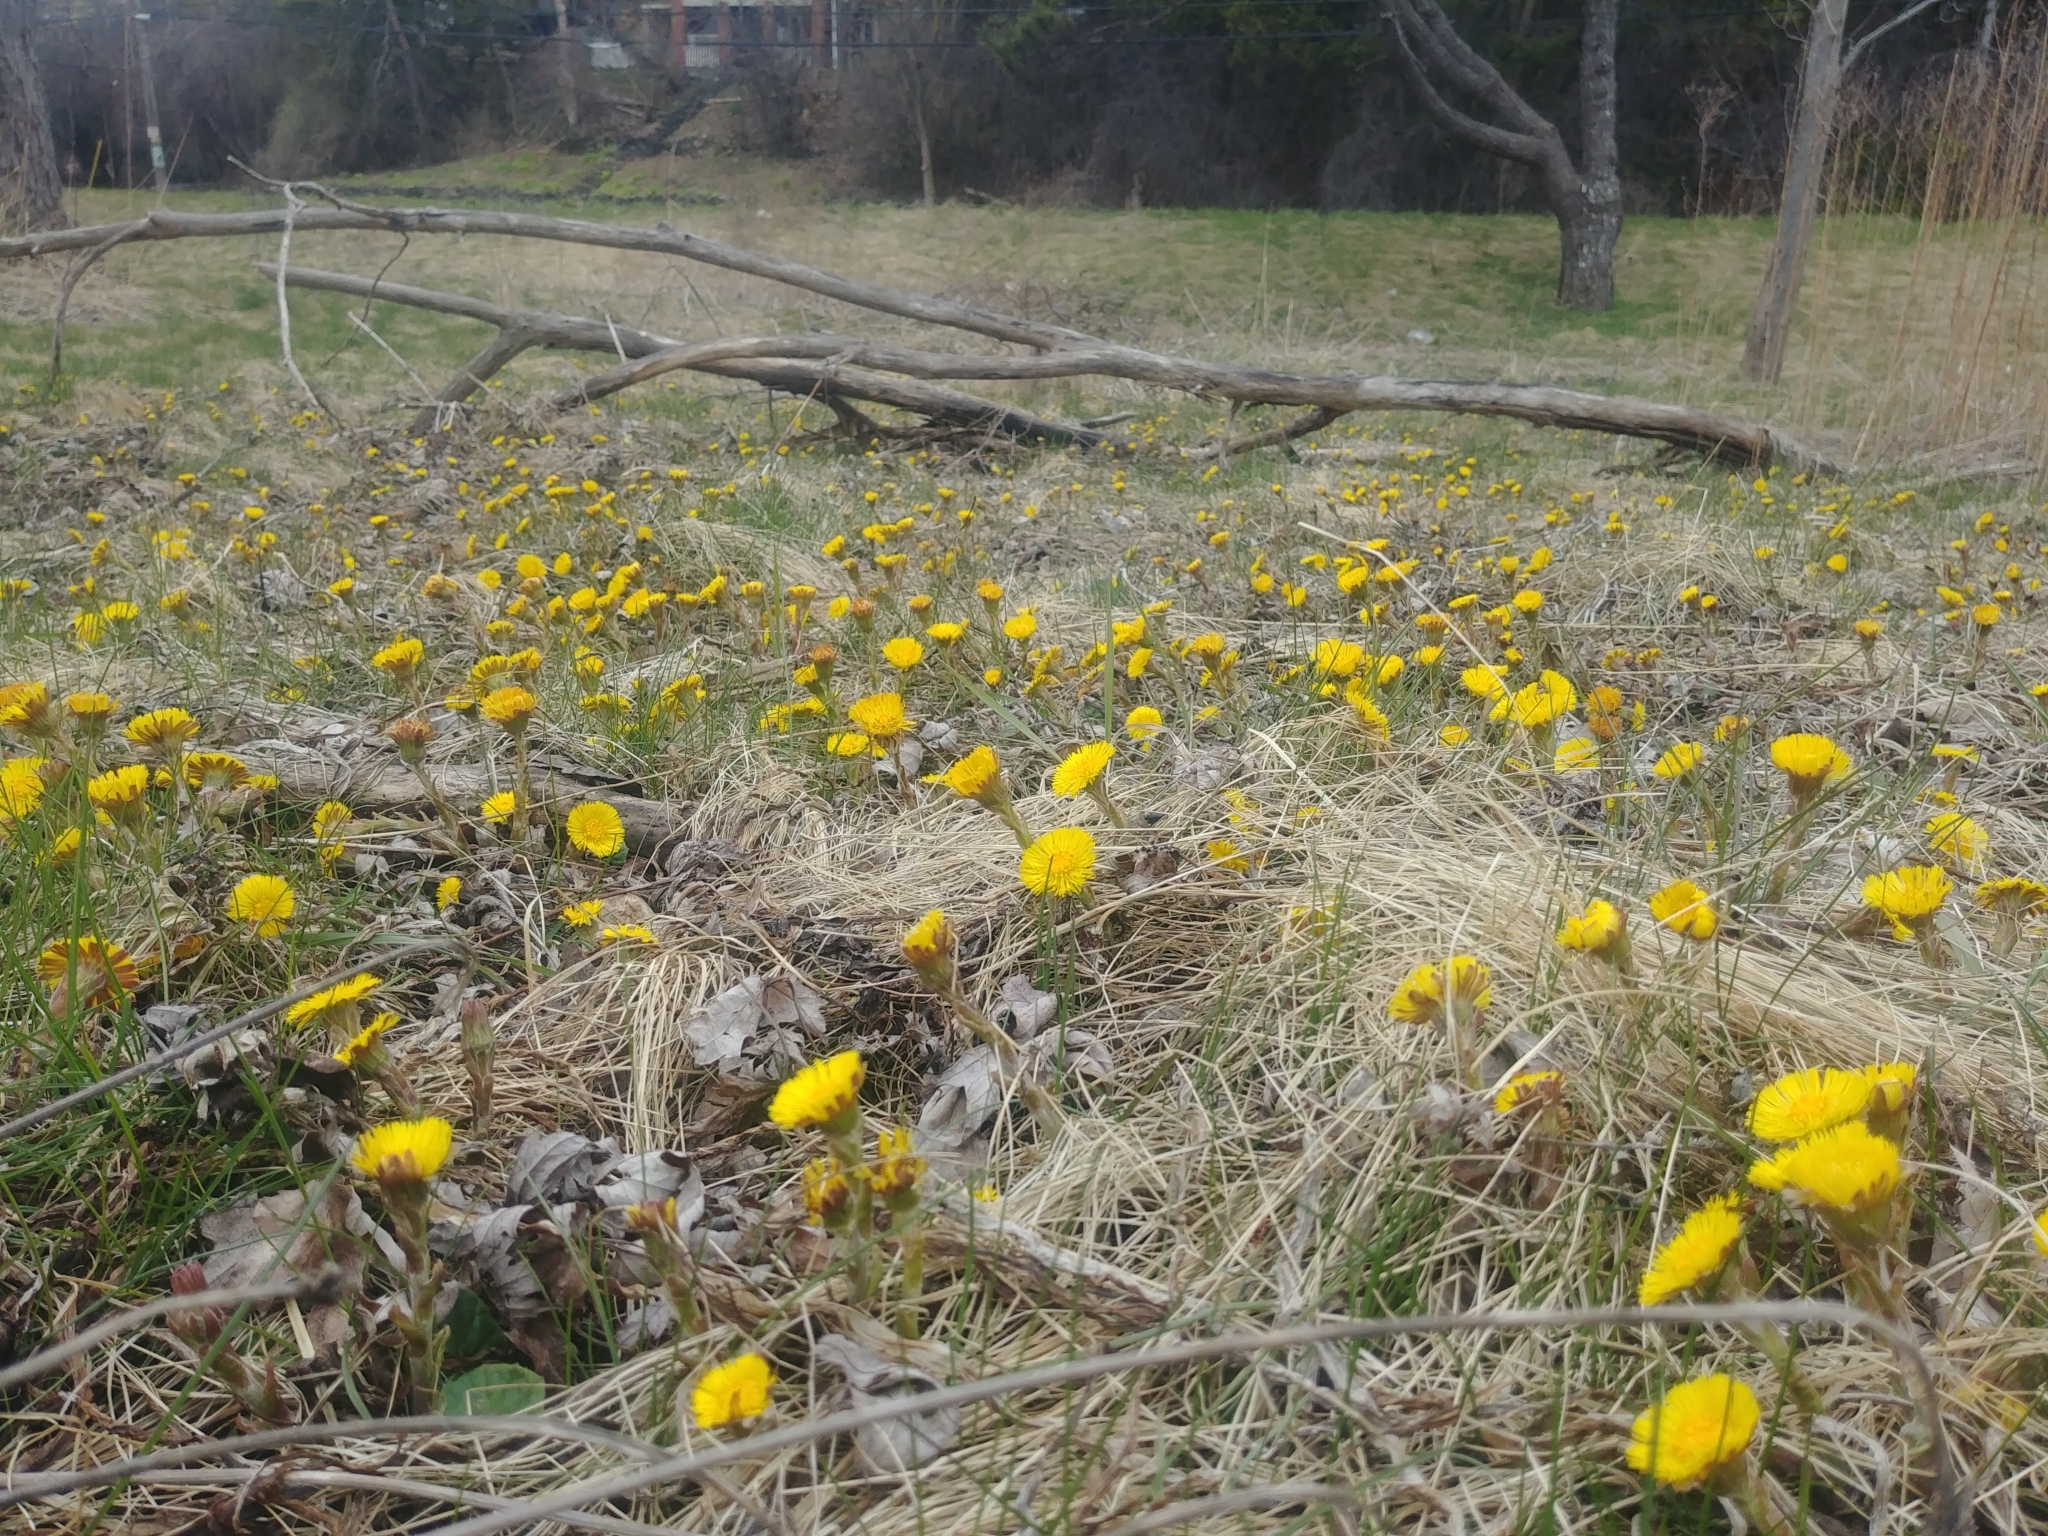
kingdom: Plantae
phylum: Tracheophyta
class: Magnoliopsida
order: Asterales
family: Asteraceae
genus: Tussilago
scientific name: Tussilago farfara
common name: Coltsfoot
